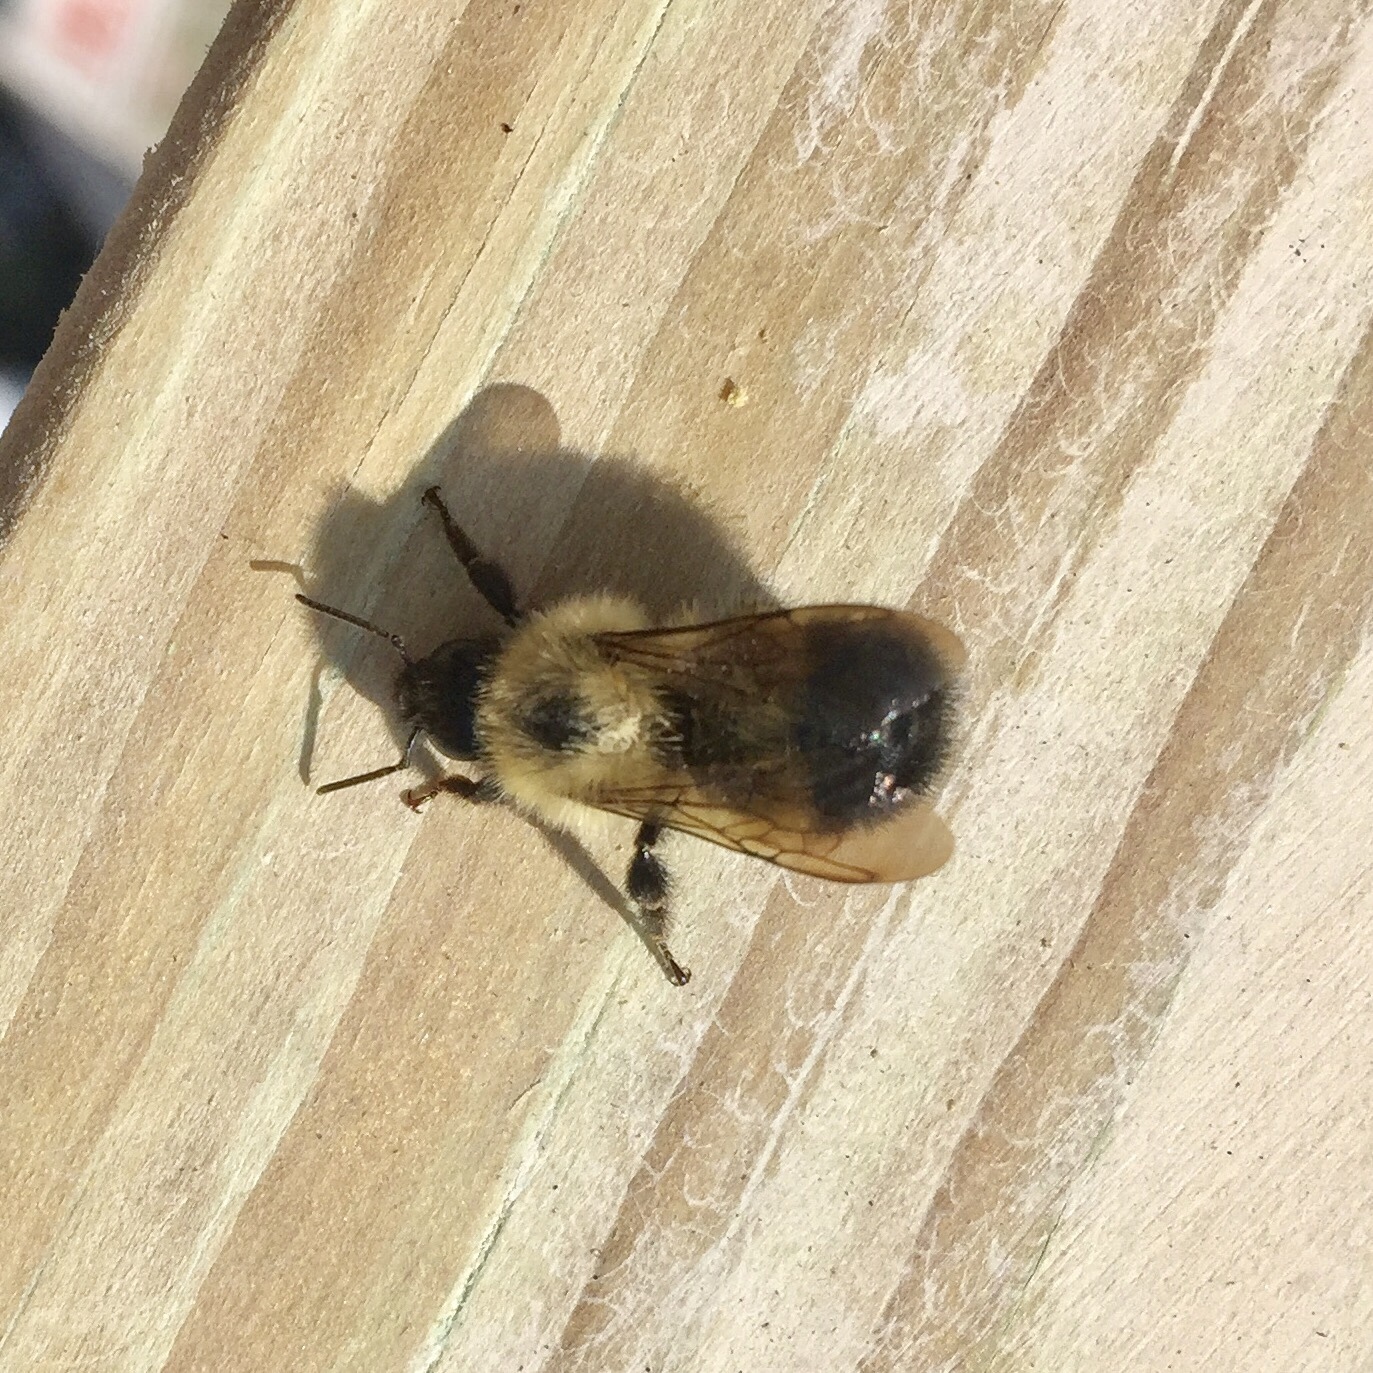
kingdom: Animalia
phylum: Arthropoda
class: Insecta
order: Hymenoptera
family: Apidae
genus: Pyrobombus
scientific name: Pyrobombus
